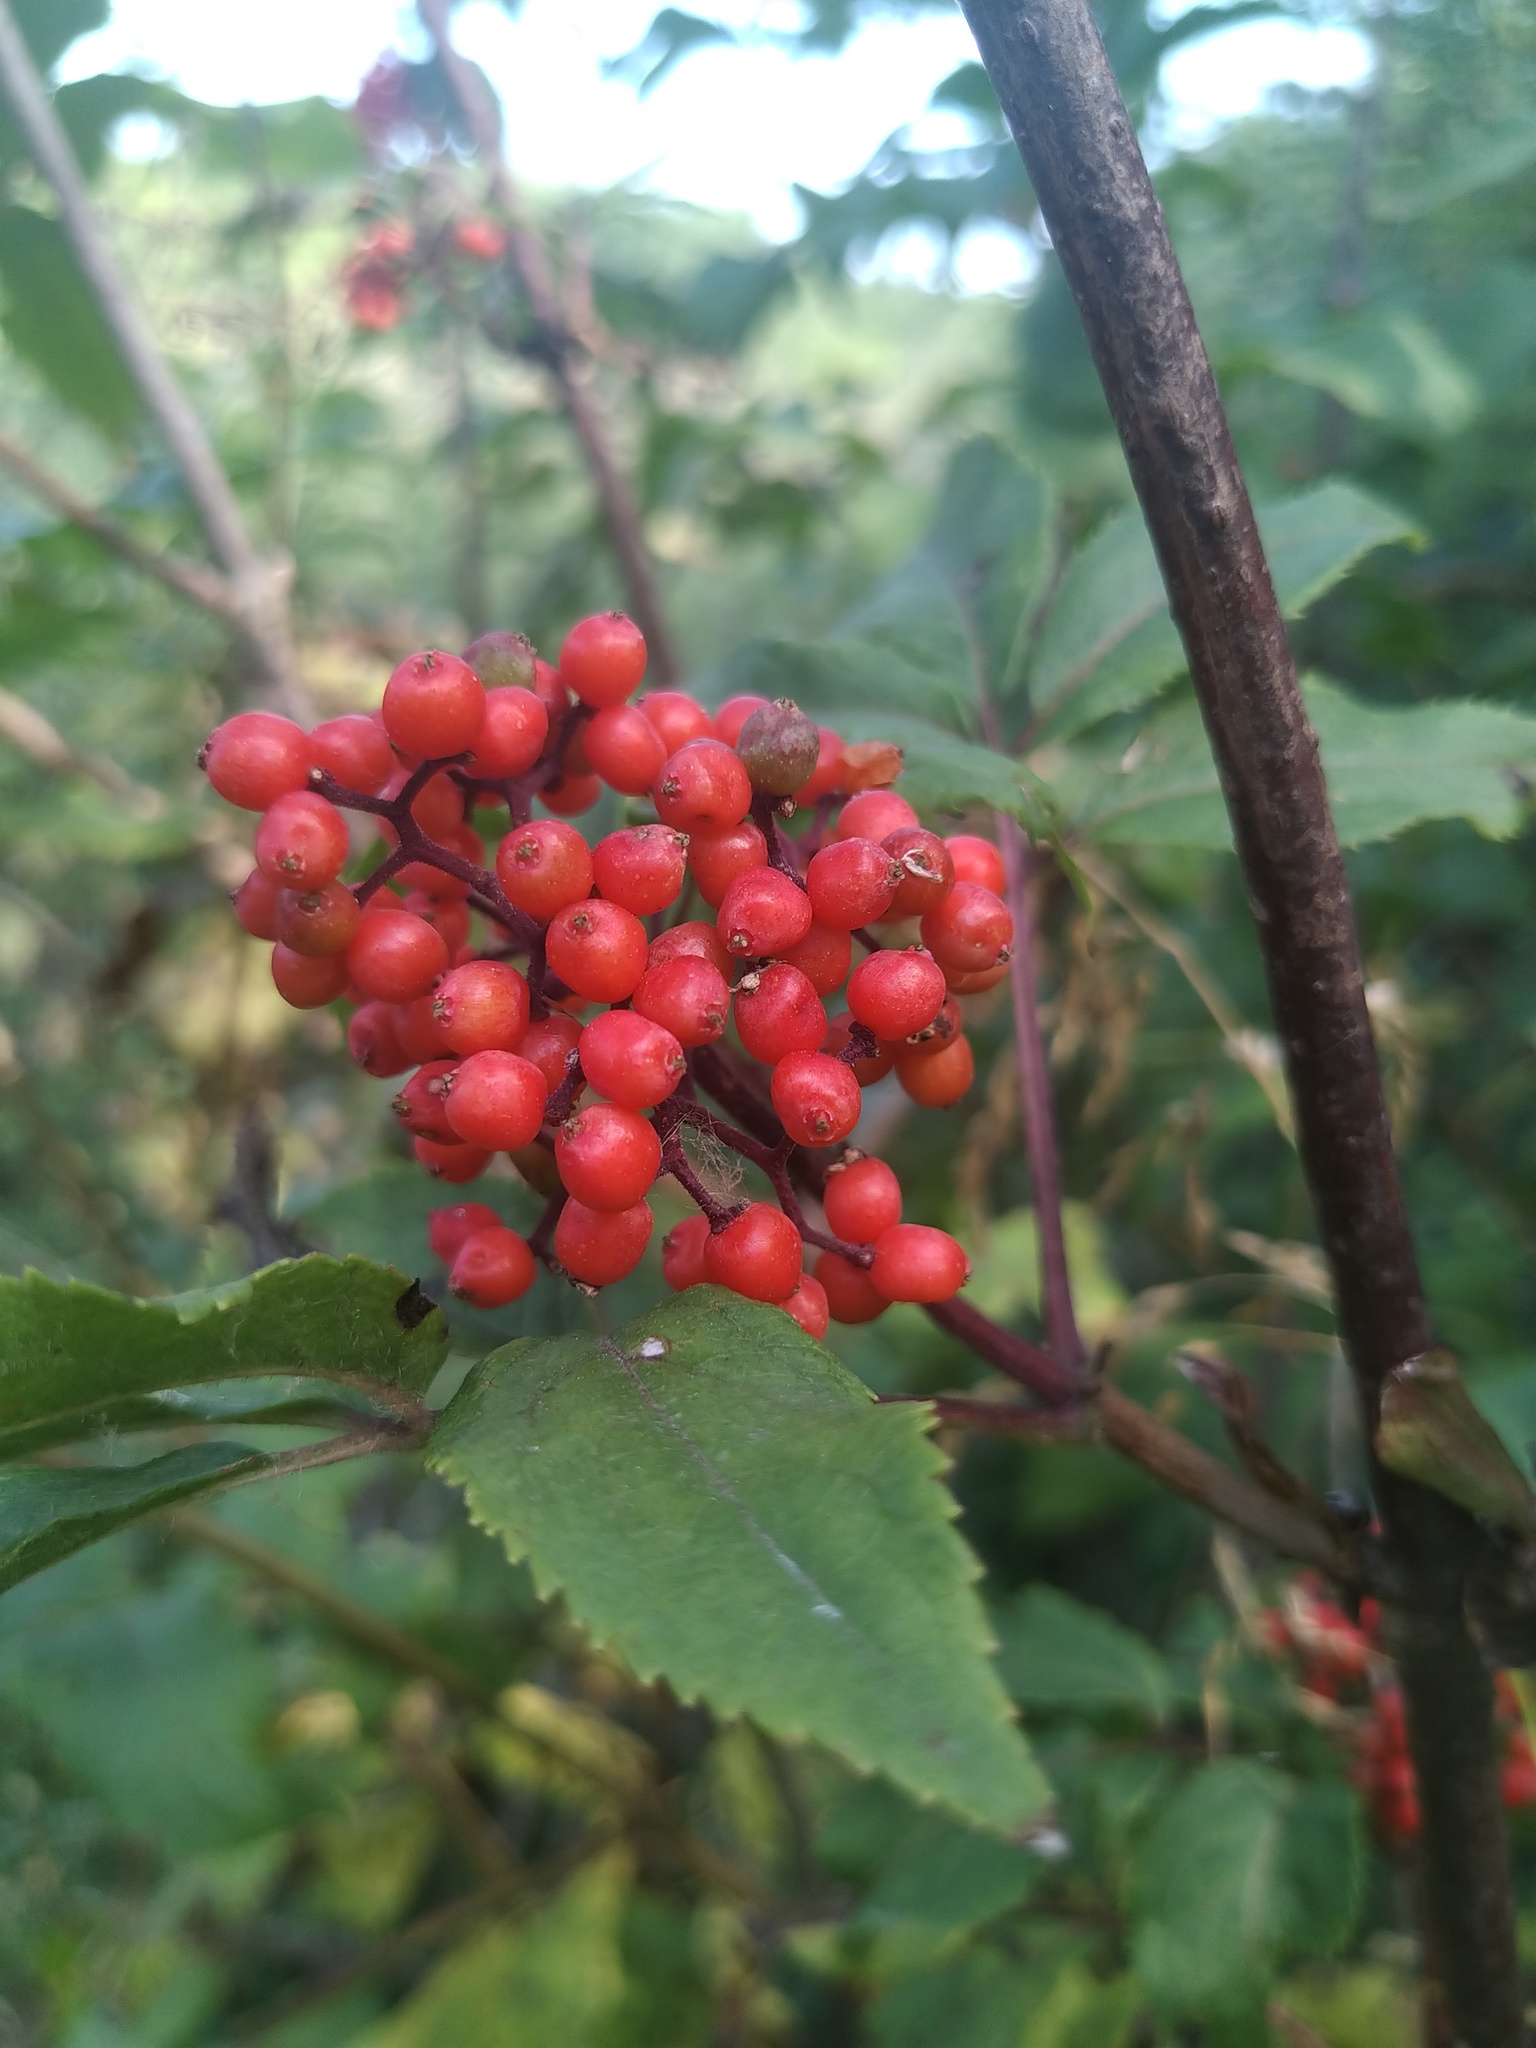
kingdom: Plantae
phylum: Tracheophyta
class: Magnoliopsida
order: Dipsacales
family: Viburnaceae
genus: Sambucus
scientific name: Sambucus racemosa
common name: Red-berried elder
